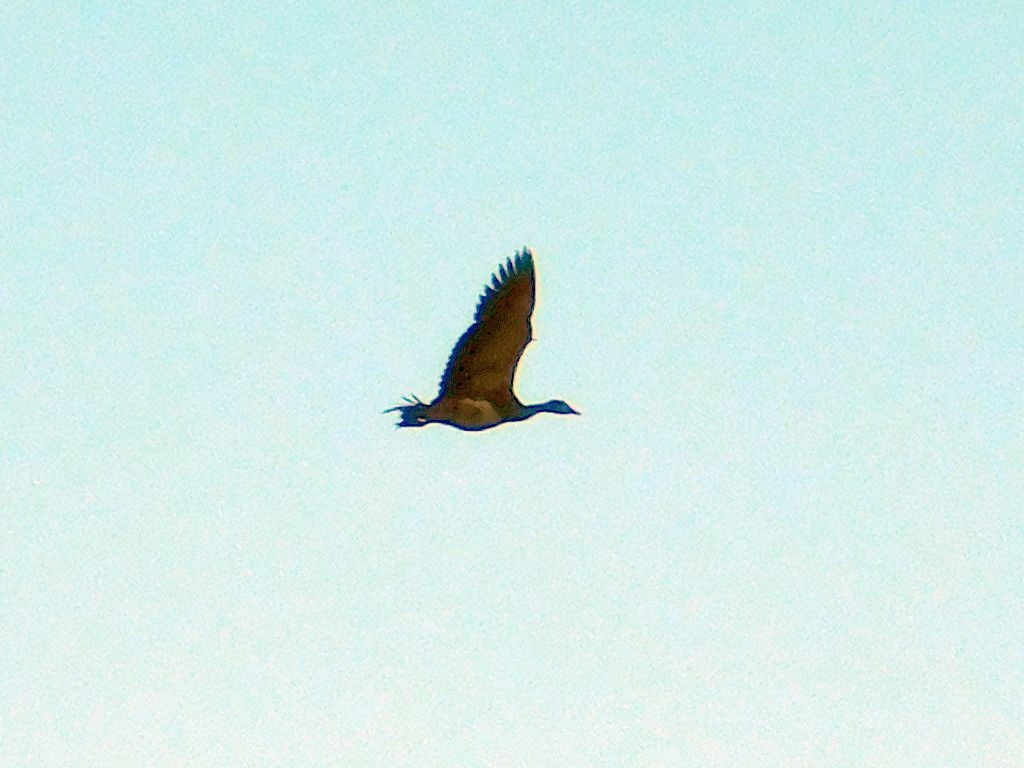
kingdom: Animalia
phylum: Chordata
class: Aves
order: Anseriformes
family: Anatidae
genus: Plectropterus
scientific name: Plectropterus gambensis
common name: Spur-winged goose
